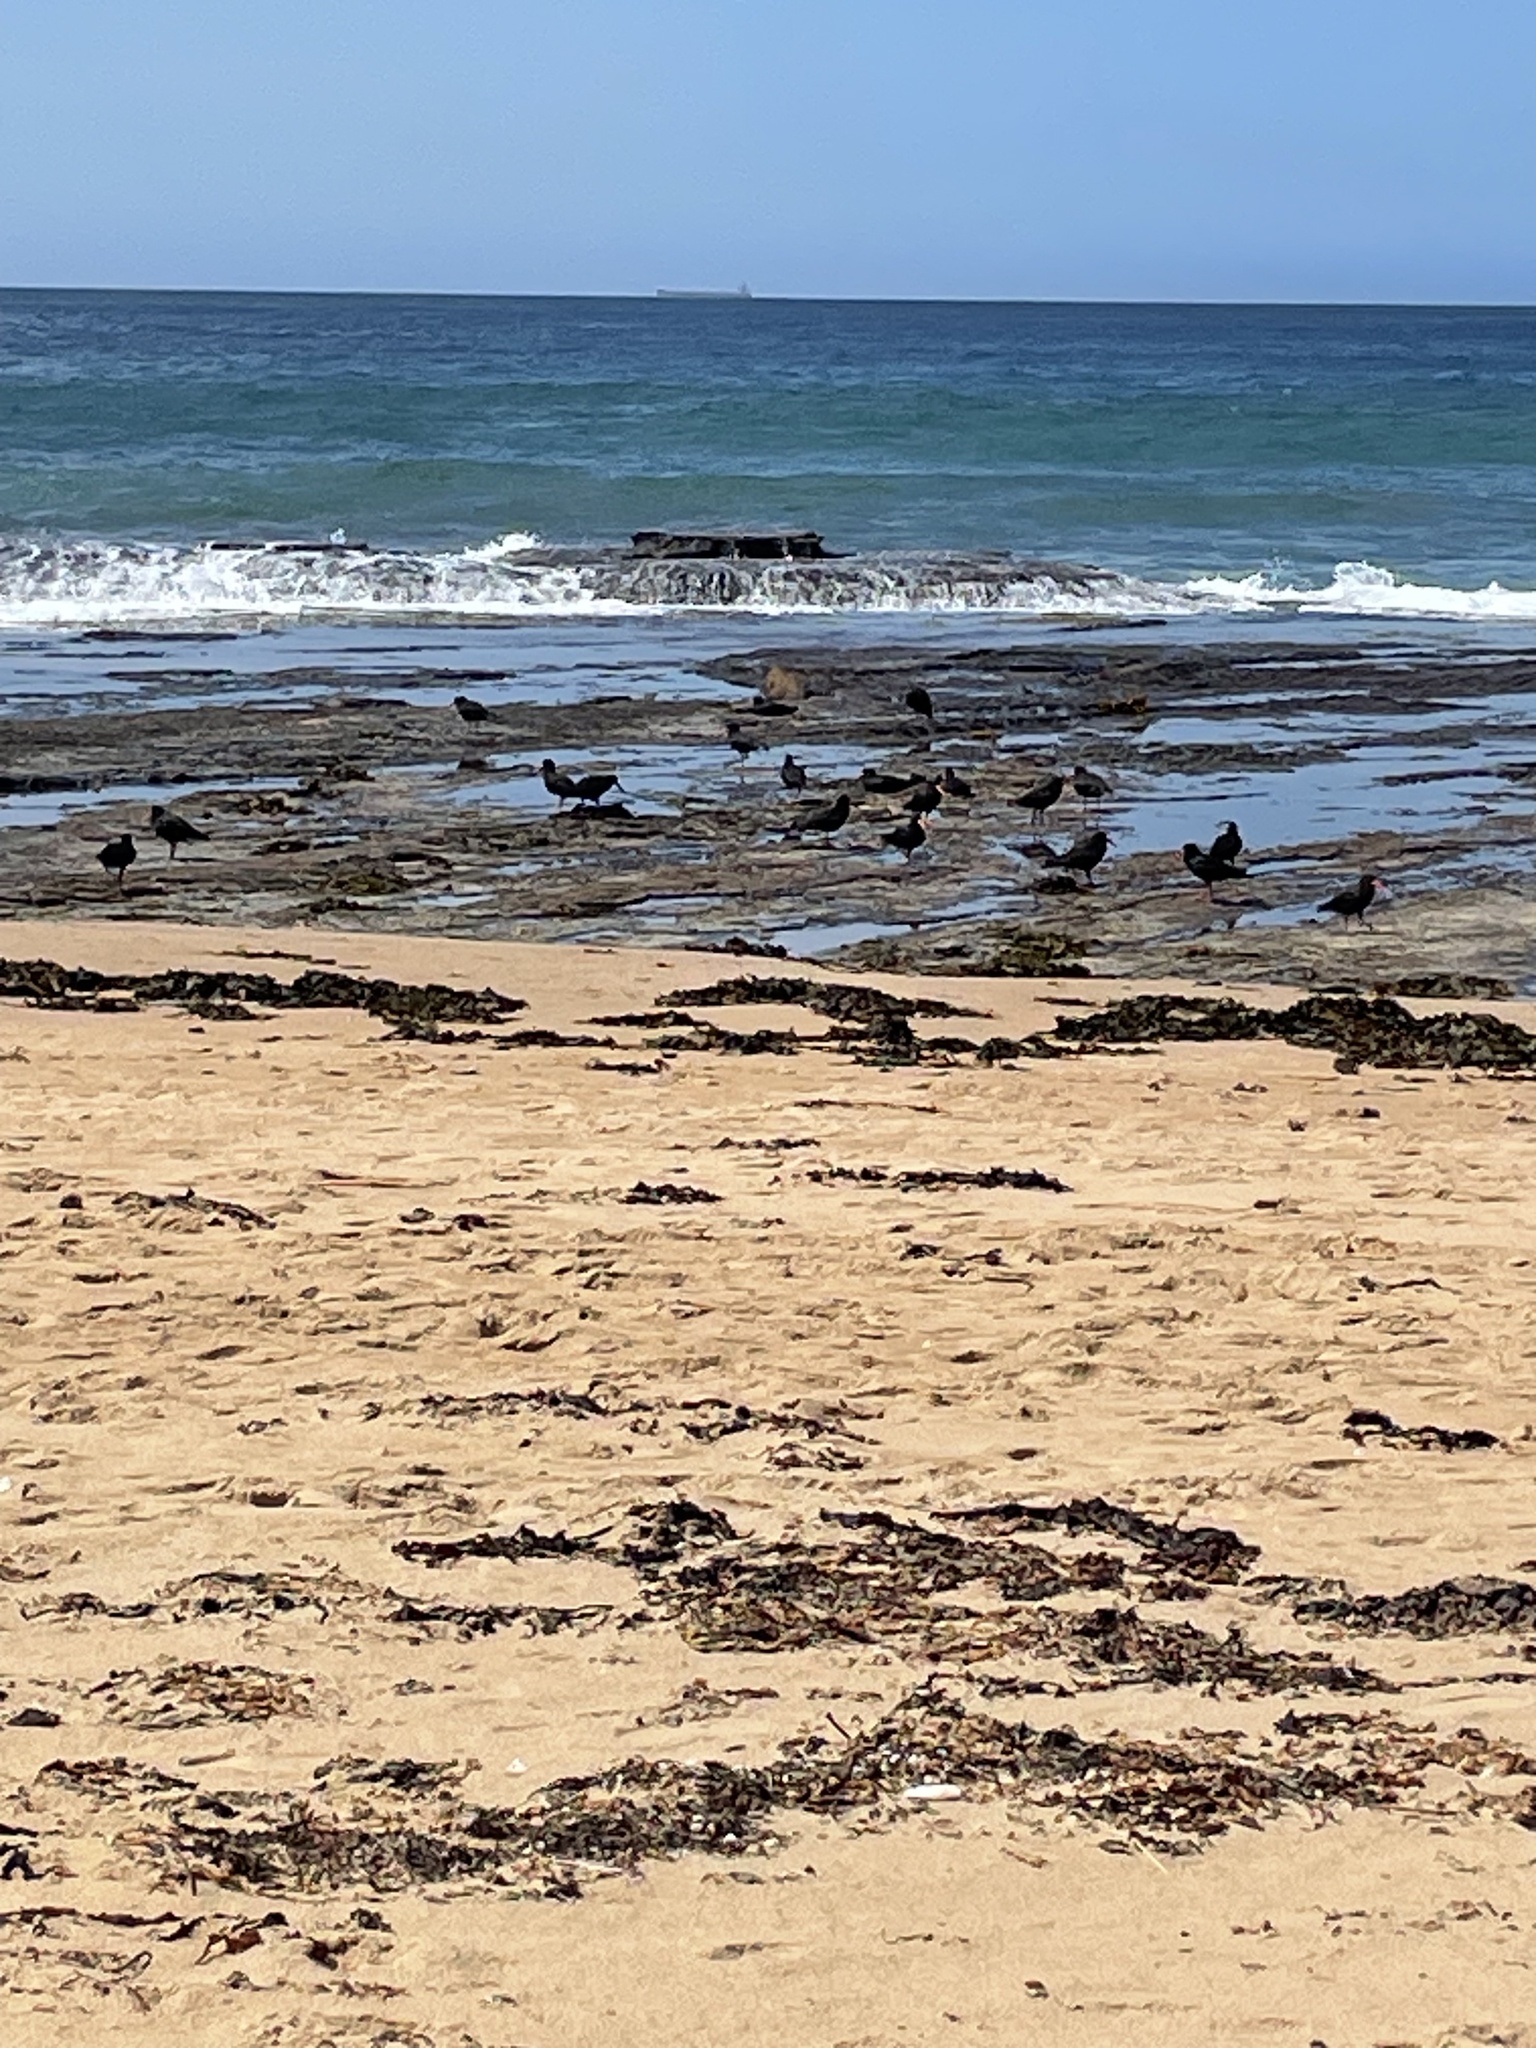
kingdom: Animalia
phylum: Chordata
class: Aves
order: Charadriiformes
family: Haematopodidae
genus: Haematopus
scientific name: Haematopus fuliginosus
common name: Sooty oystercatcher
